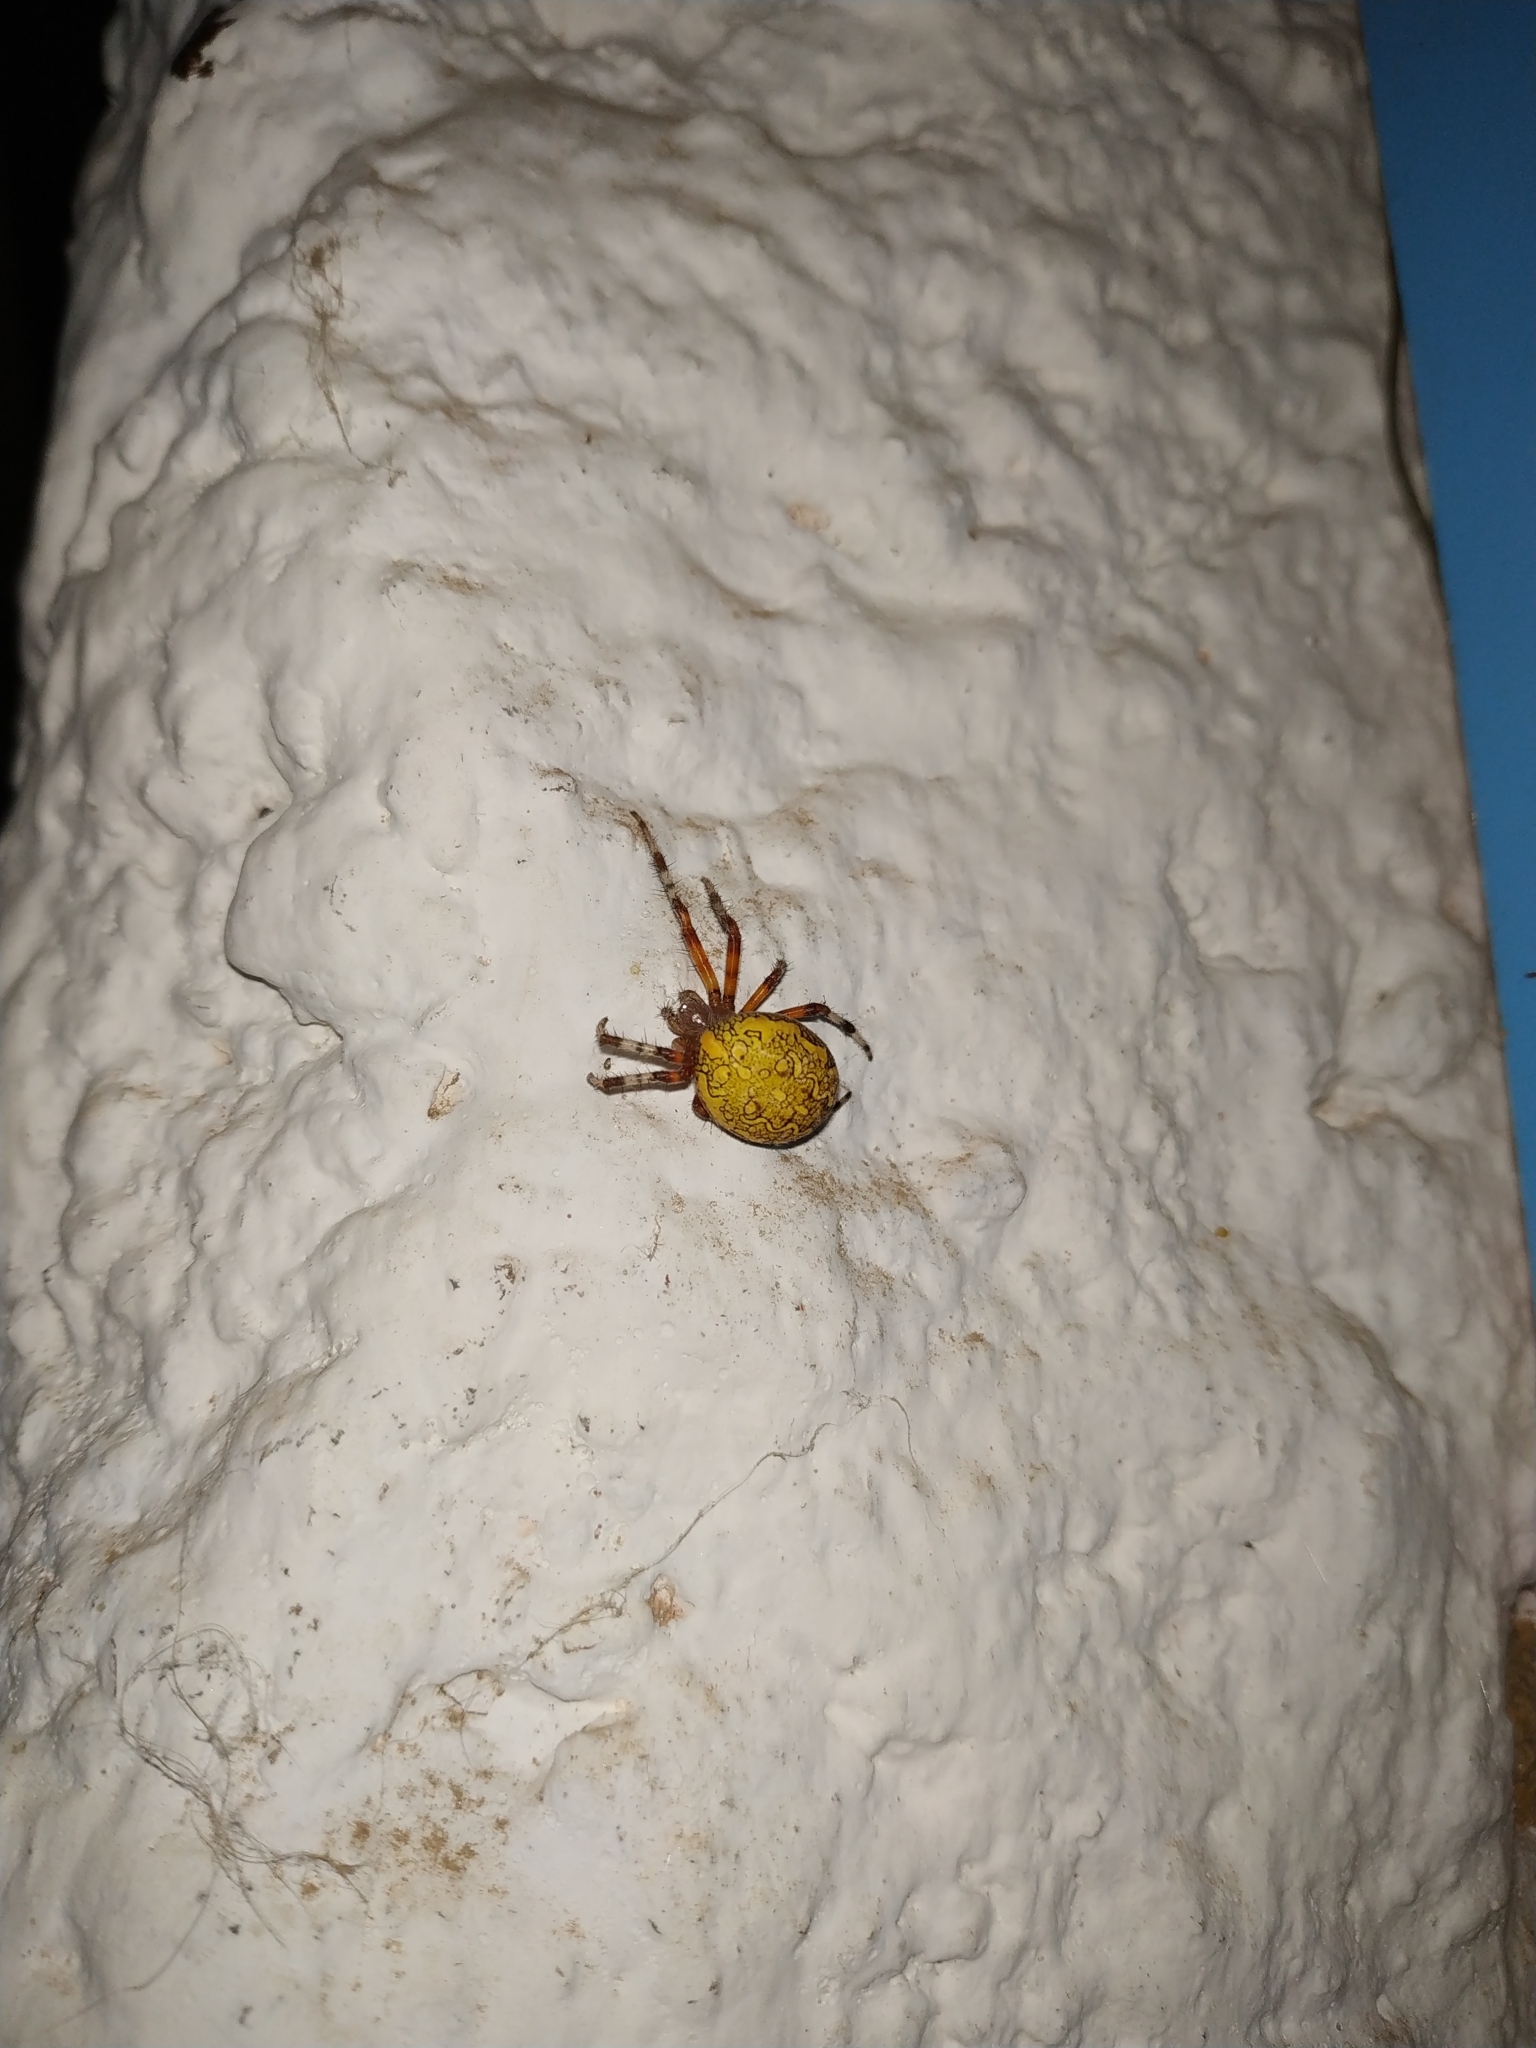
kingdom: Animalia
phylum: Arthropoda
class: Arachnida
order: Araneae
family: Araneidae
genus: Araneus
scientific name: Araneus marmoreus
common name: Marbled orbweaver
